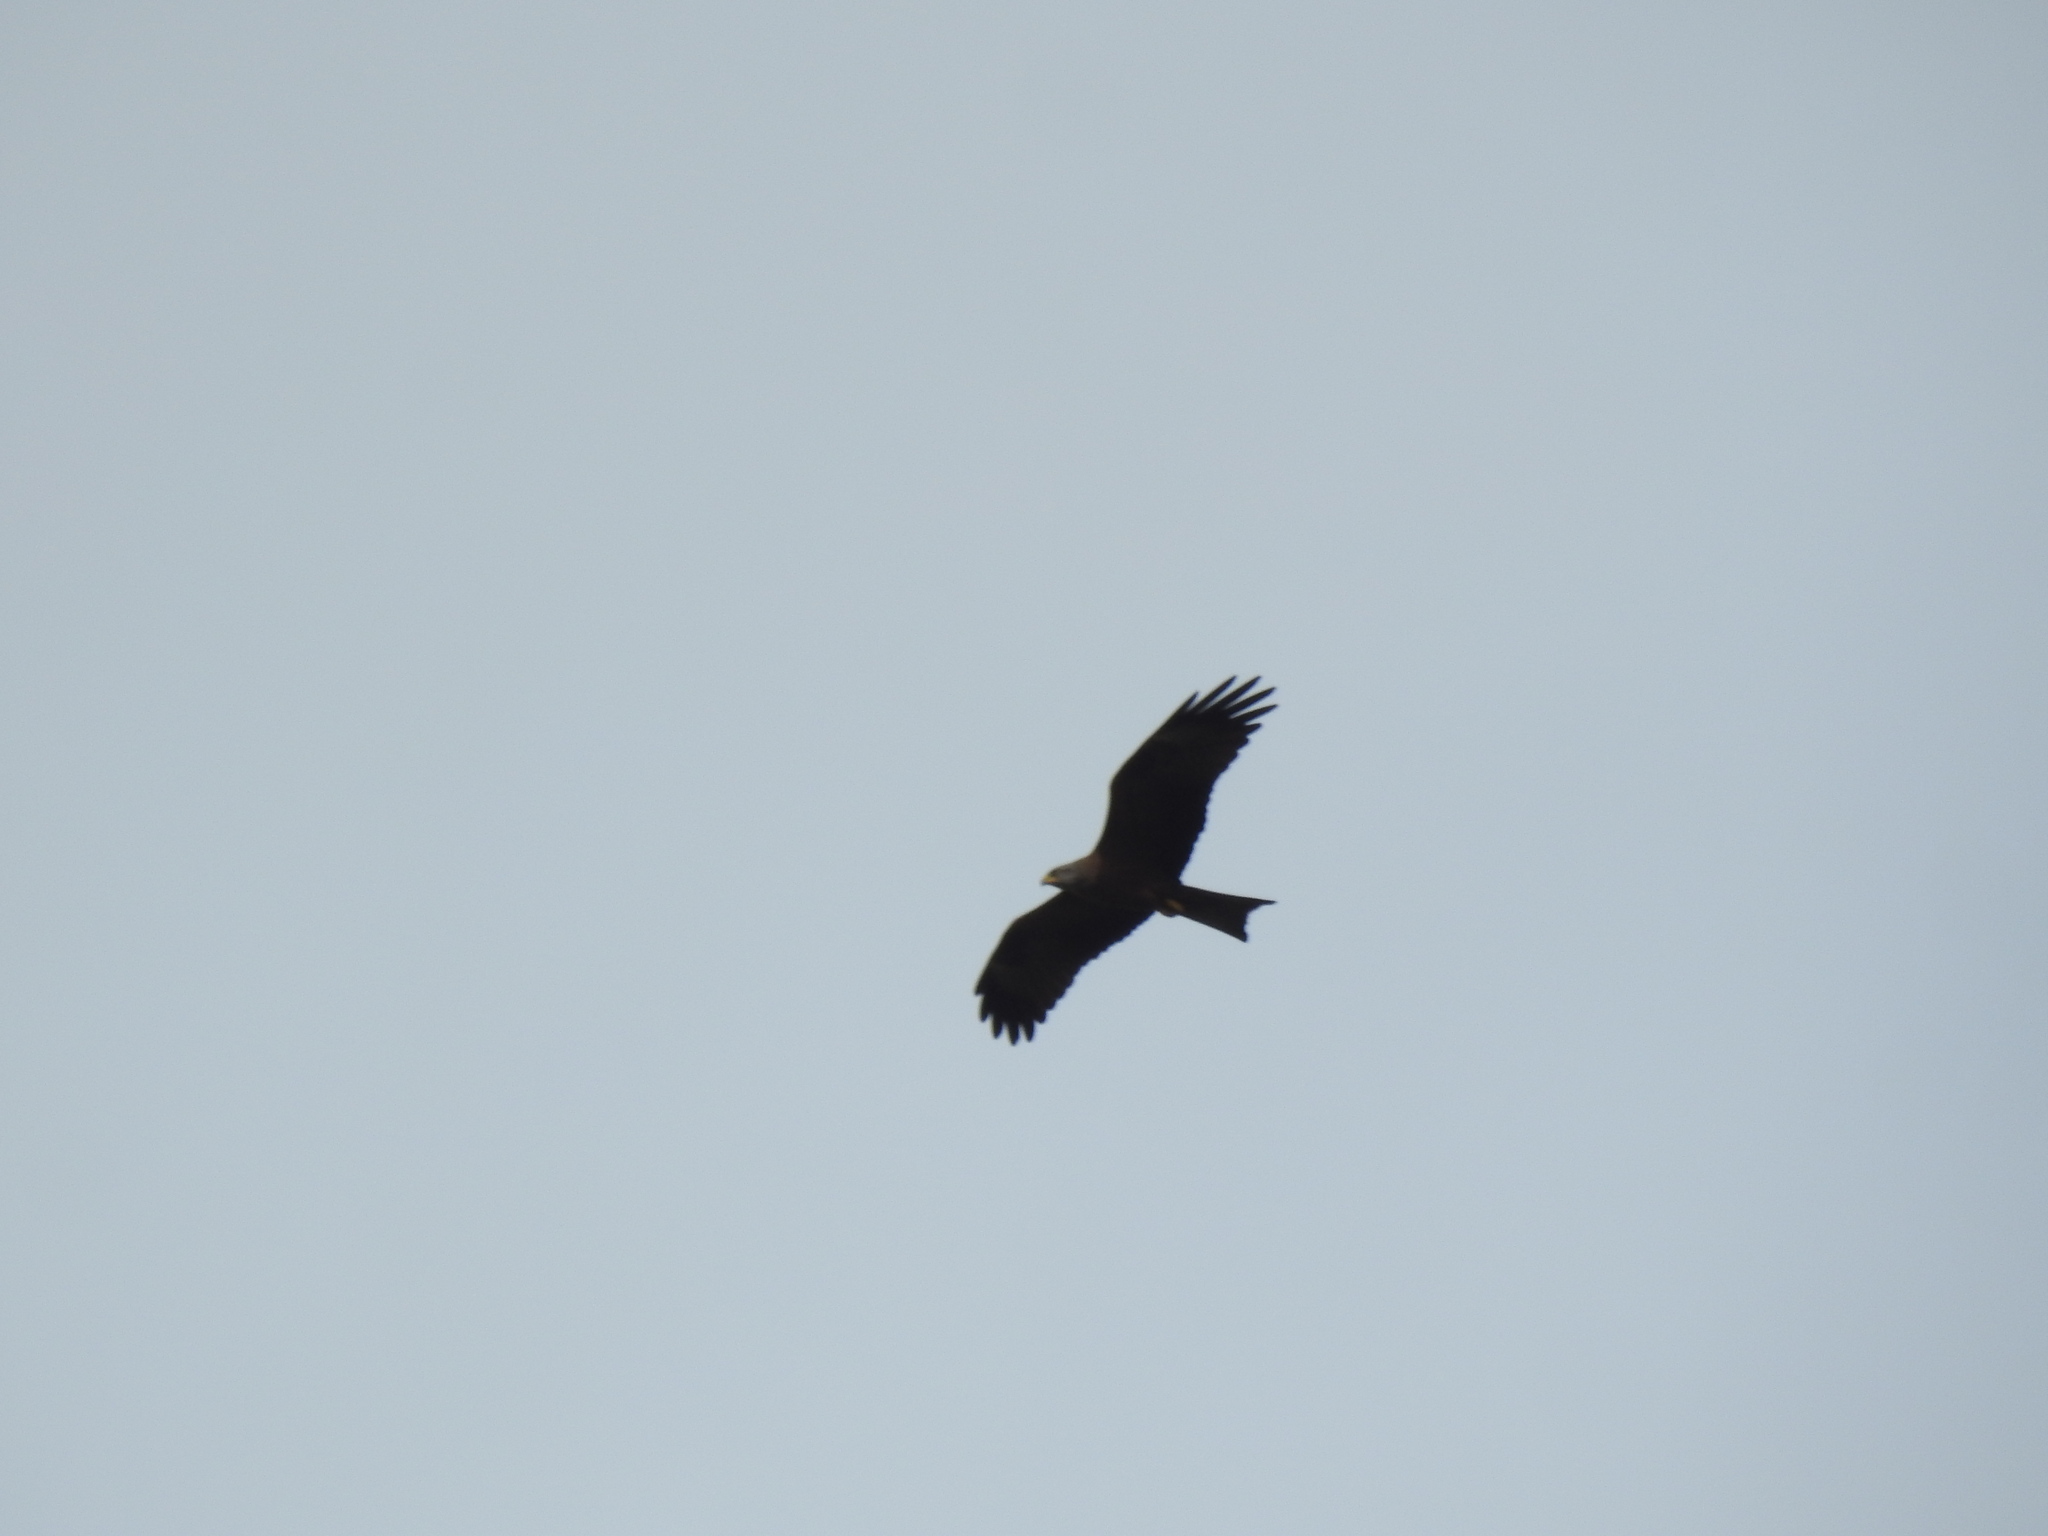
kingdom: Animalia
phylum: Chordata
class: Aves
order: Accipitriformes
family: Accipitridae
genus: Milvus
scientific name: Milvus migrans
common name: Black kite
